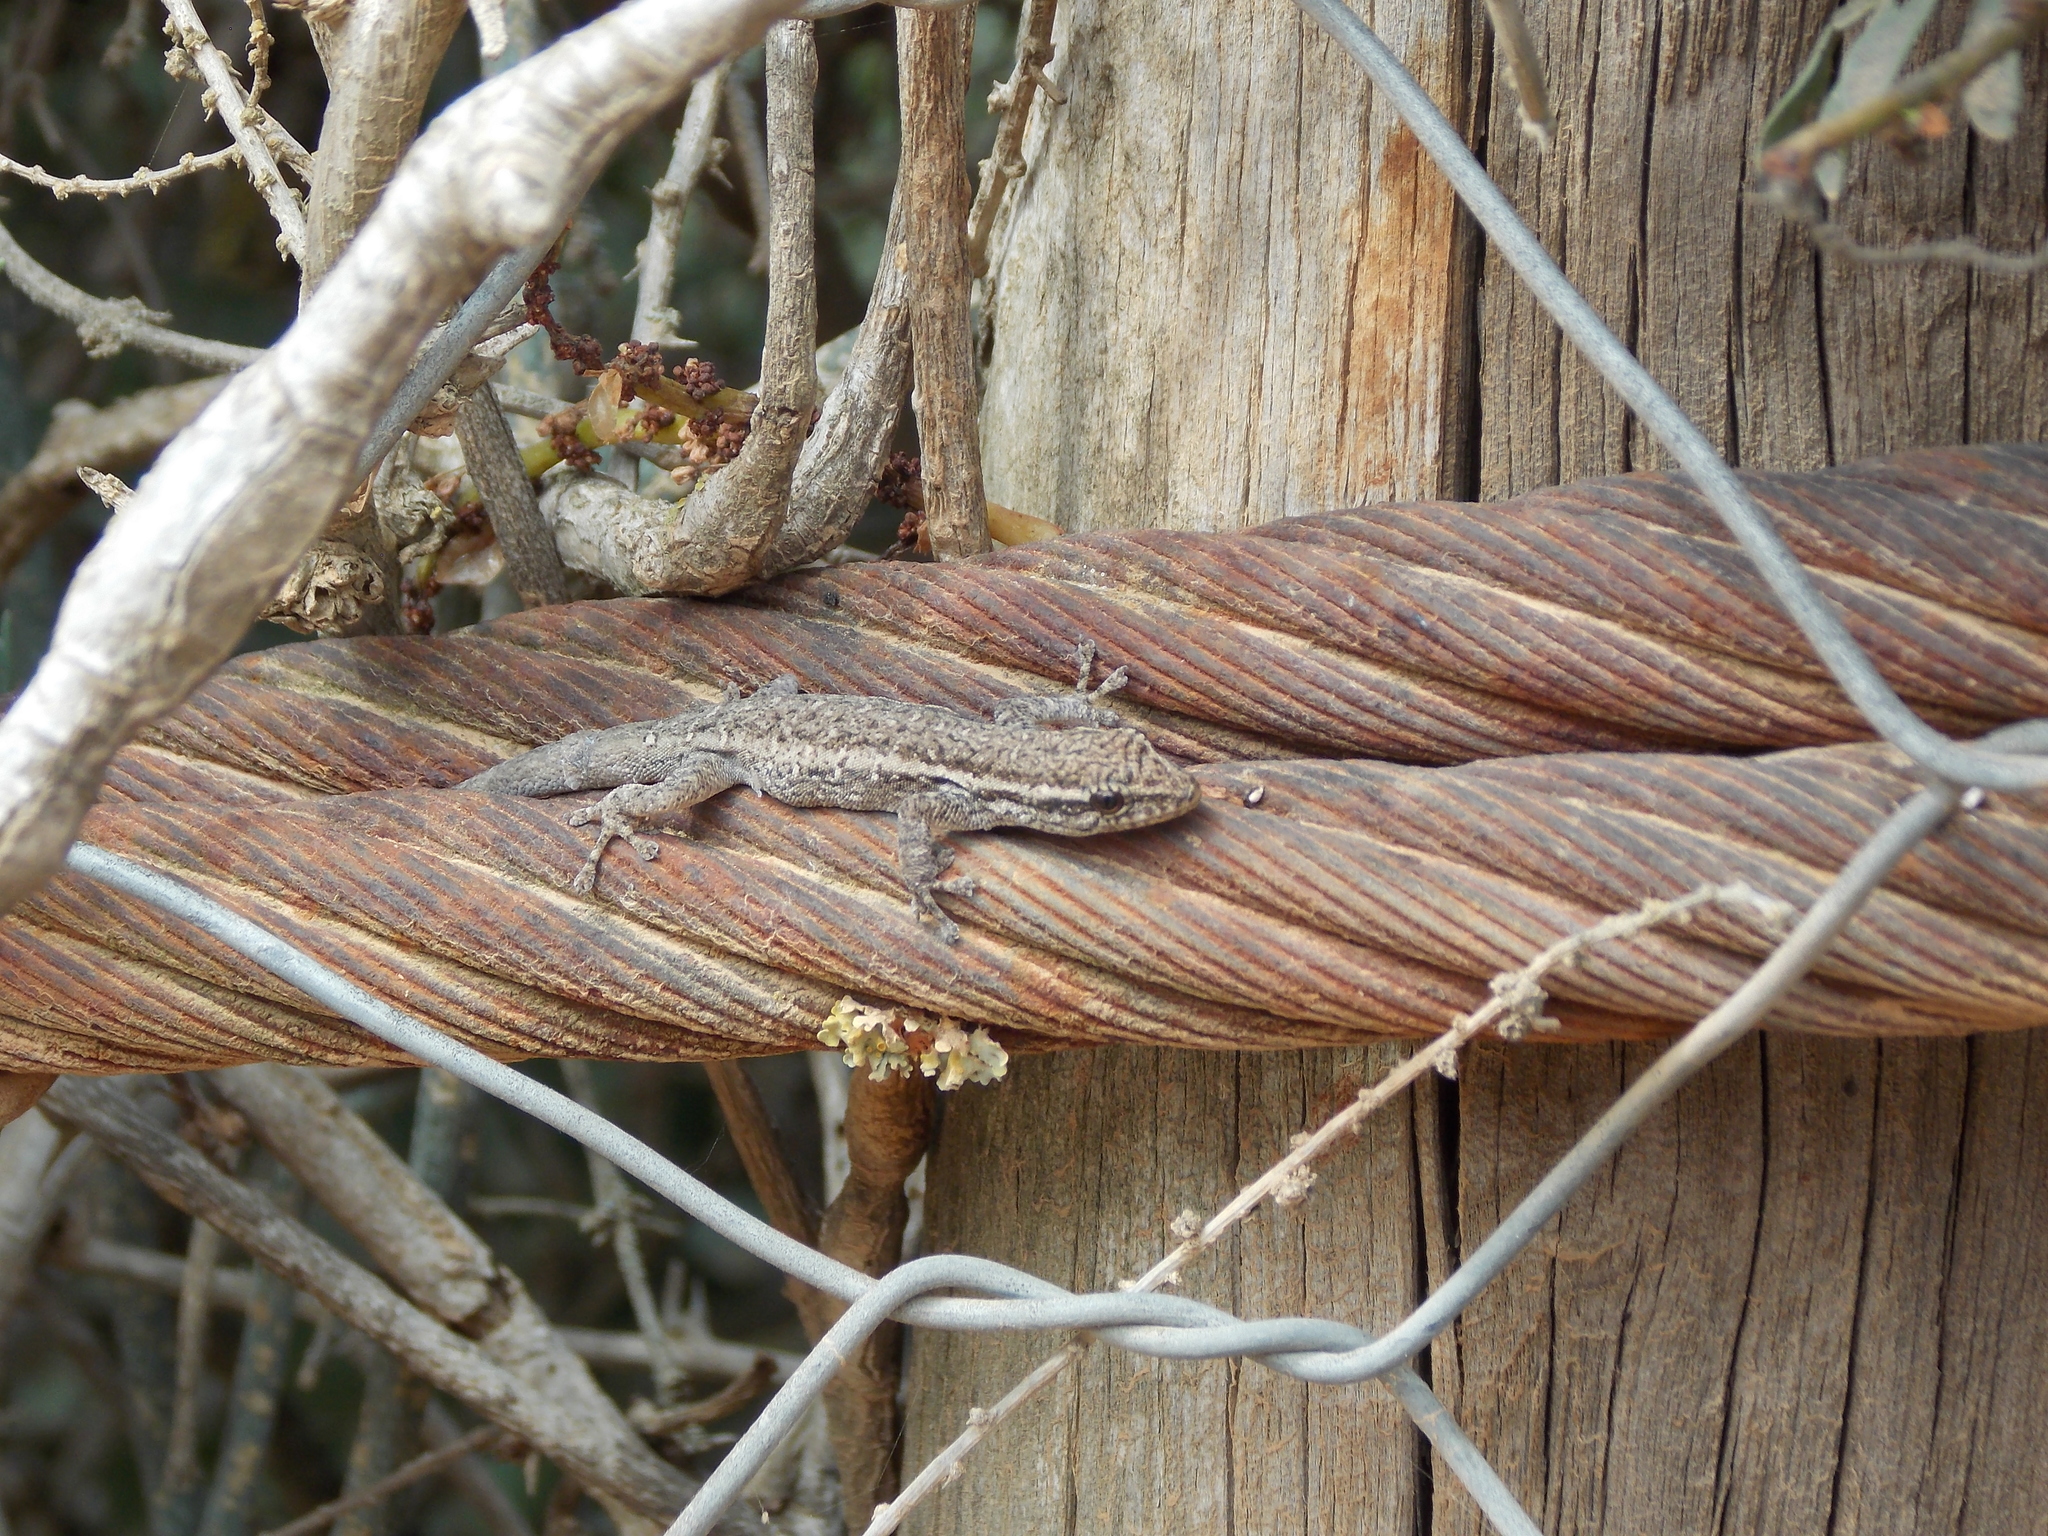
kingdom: Animalia
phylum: Chordata
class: Squamata
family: Gekkonidae
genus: Lygodactylus
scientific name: Lygodactylus capensis
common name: Cape dwarf gecko
